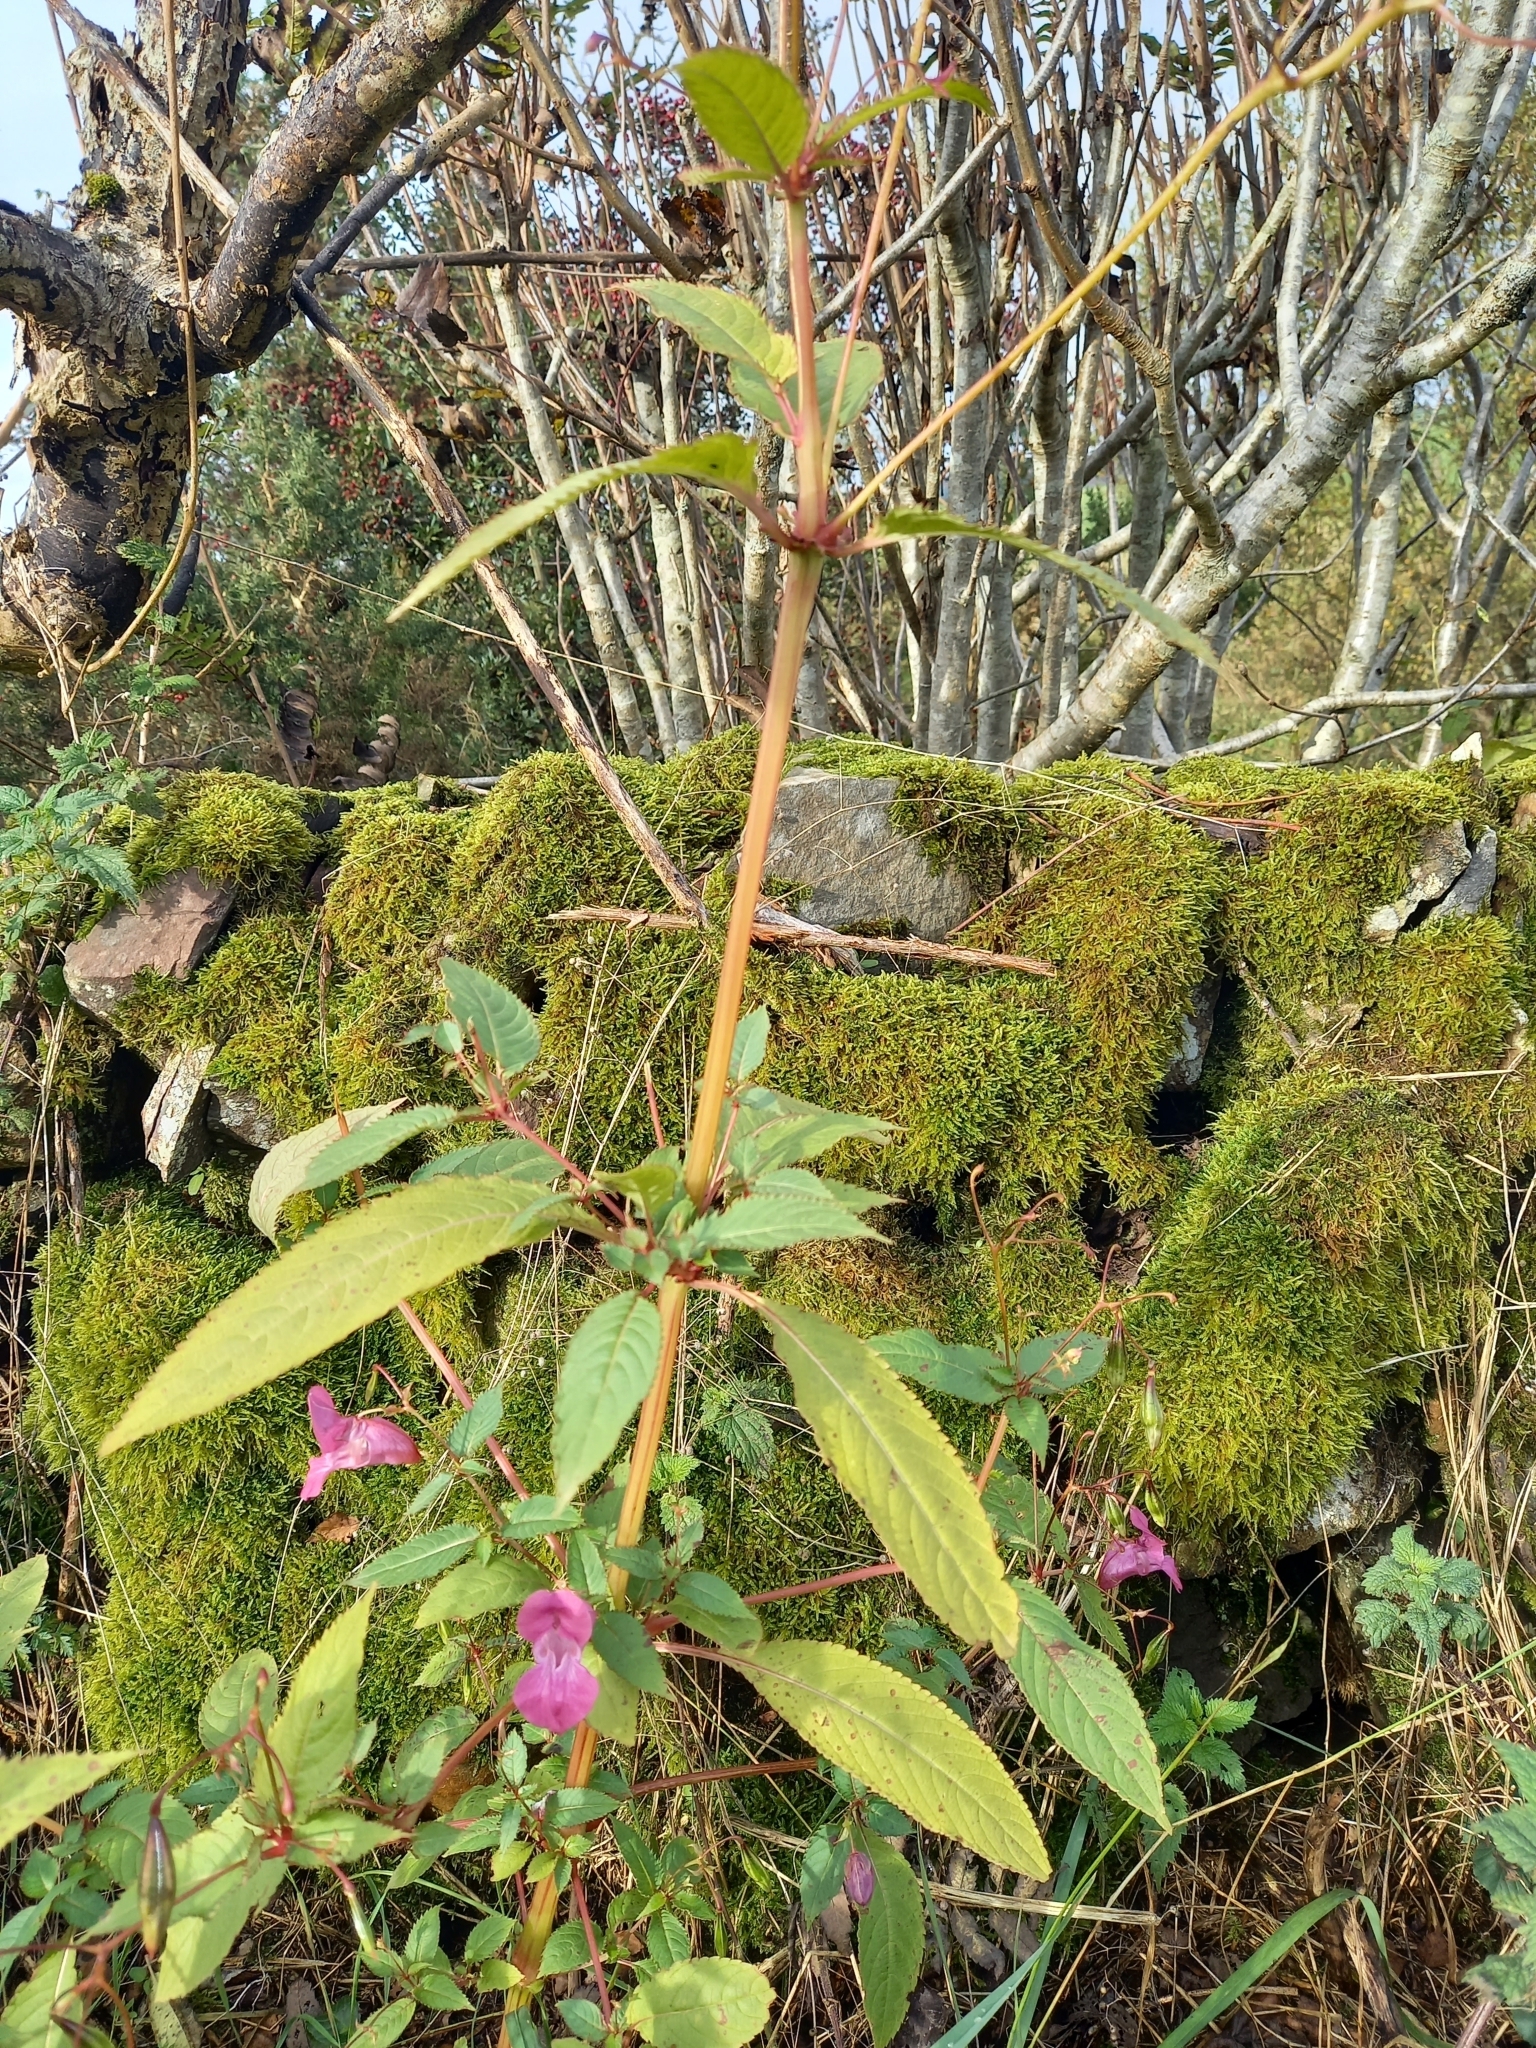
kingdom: Plantae
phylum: Tracheophyta
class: Magnoliopsida
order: Ericales
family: Balsaminaceae
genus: Impatiens
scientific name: Impatiens glandulifera
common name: Himalayan balsam
